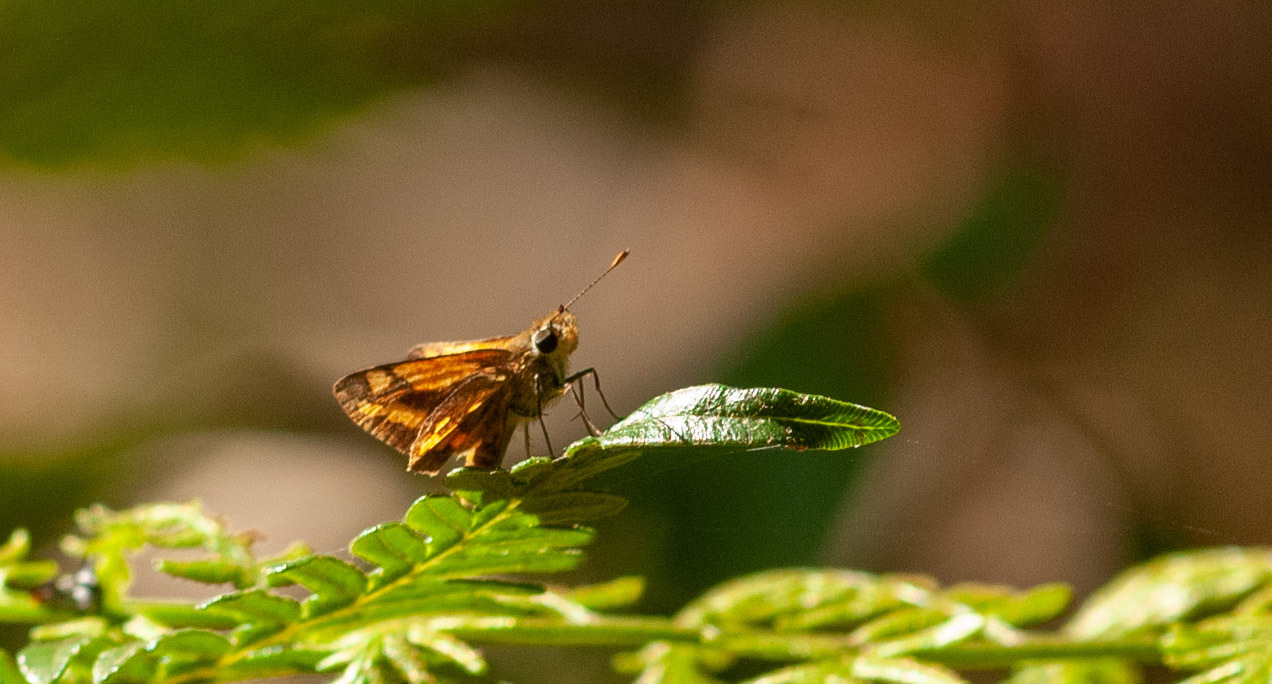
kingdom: Animalia
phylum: Arthropoda
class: Insecta
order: Lepidoptera
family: Hesperiidae
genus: Ocybadistes
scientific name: Ocybadistes walkeri
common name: Yellow-banded dart
